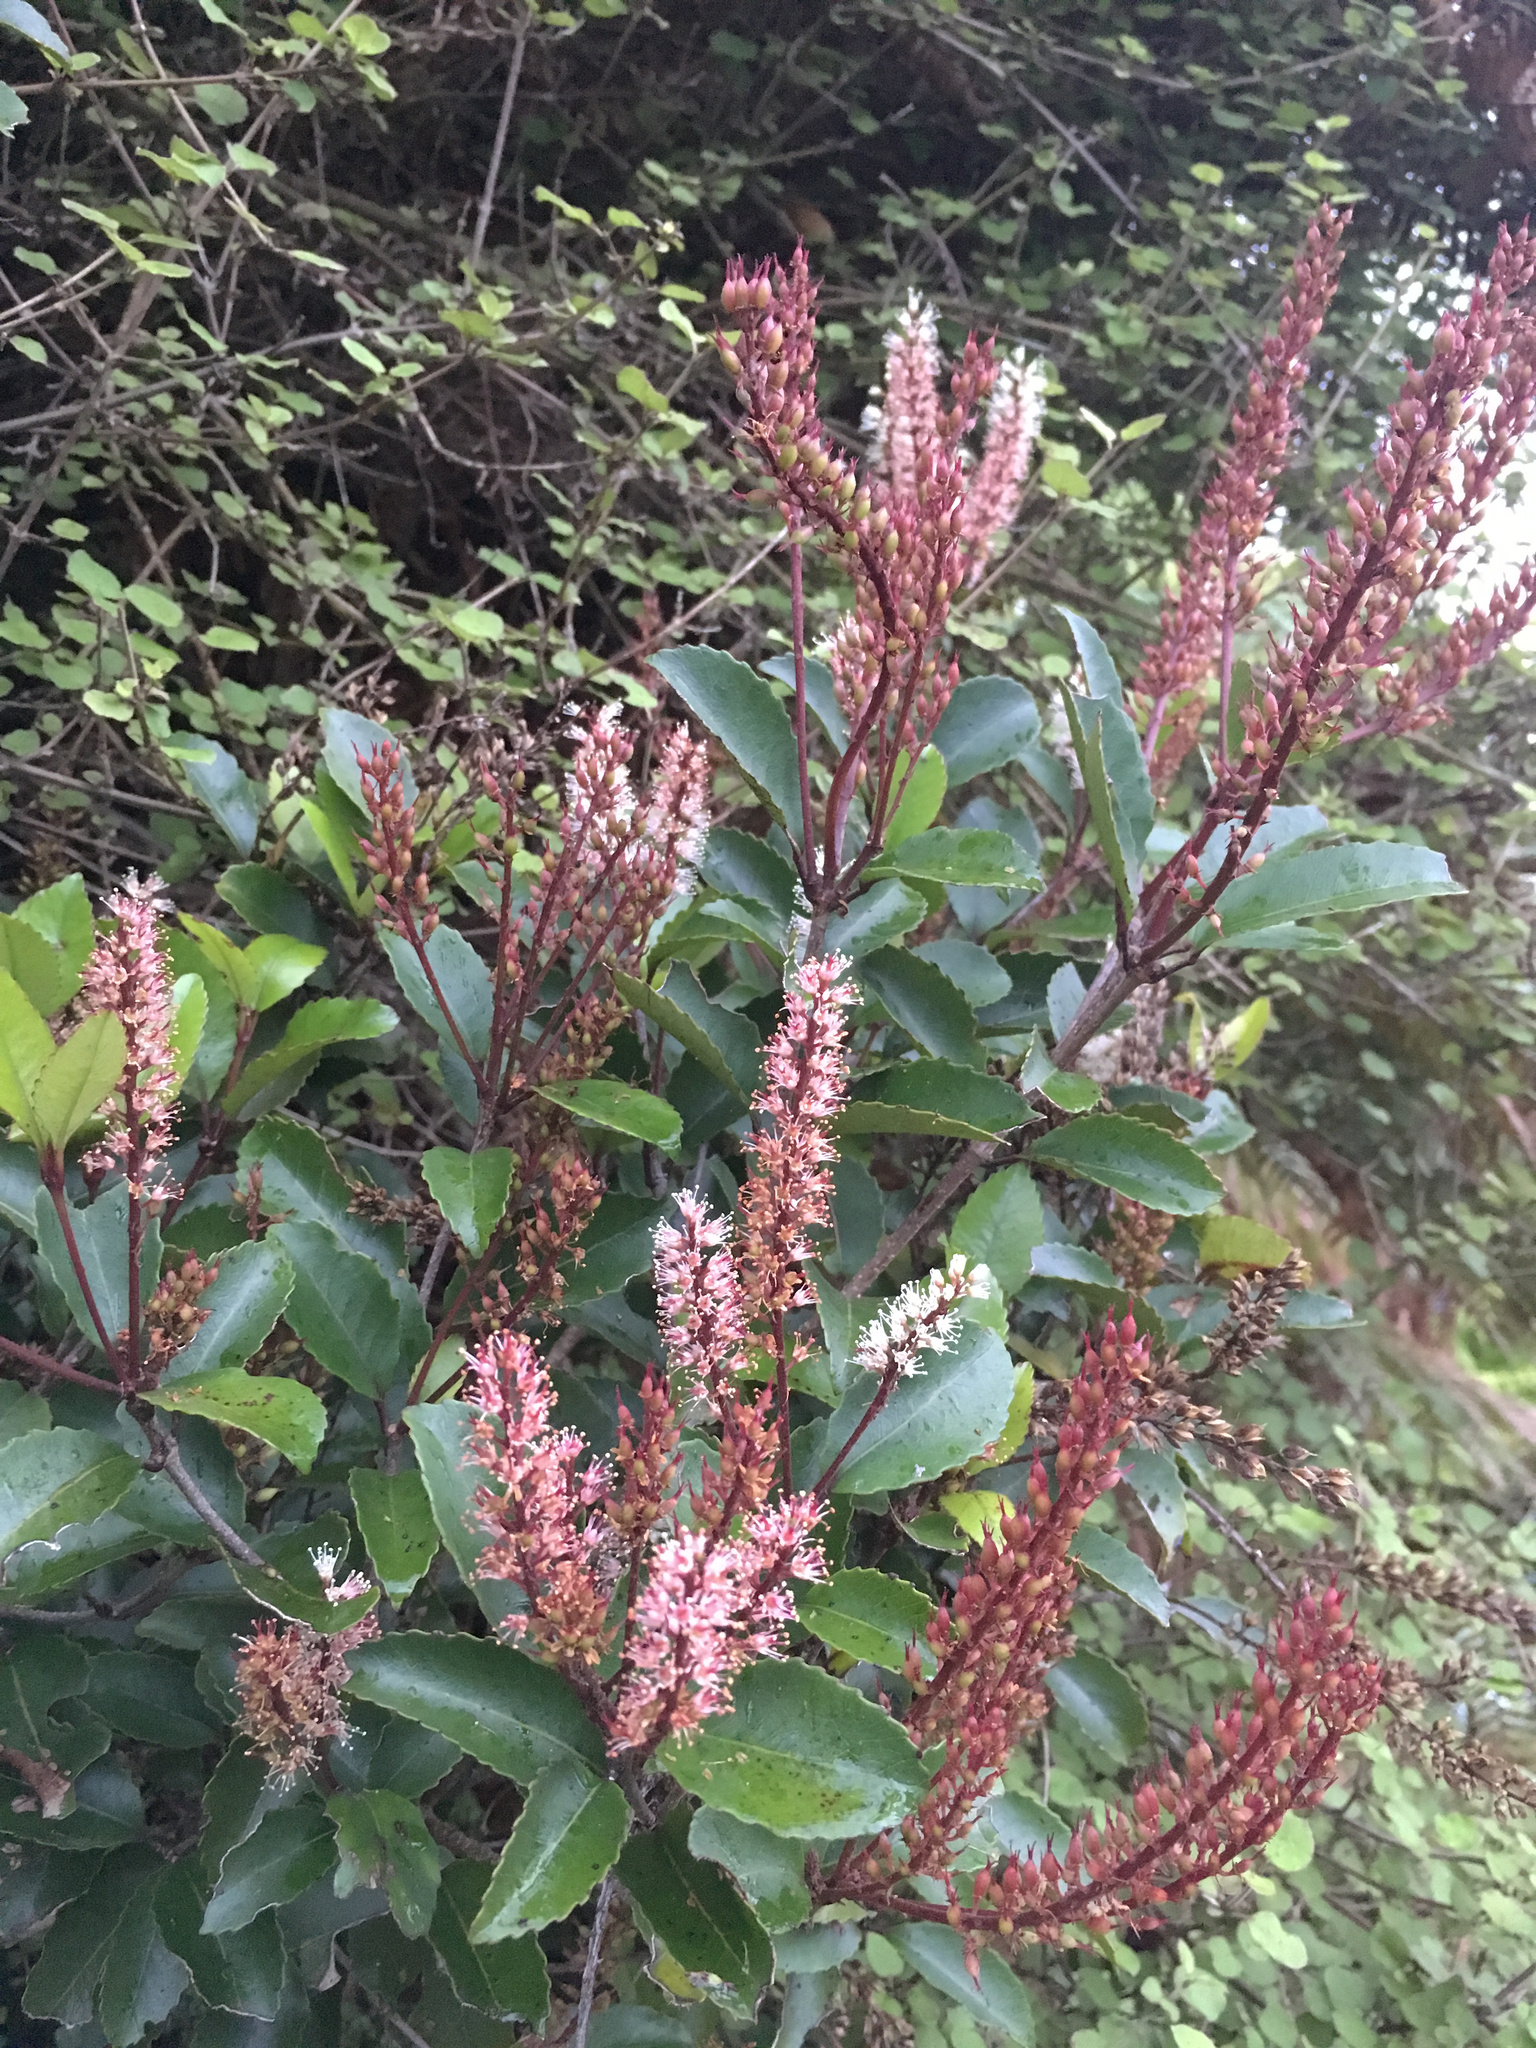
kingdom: Plantae
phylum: Tracheophyta
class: Magnoliopsida
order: Oxalidales
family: Cunoniaceae
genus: Pterophylla
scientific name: Pterophylla racemosa
